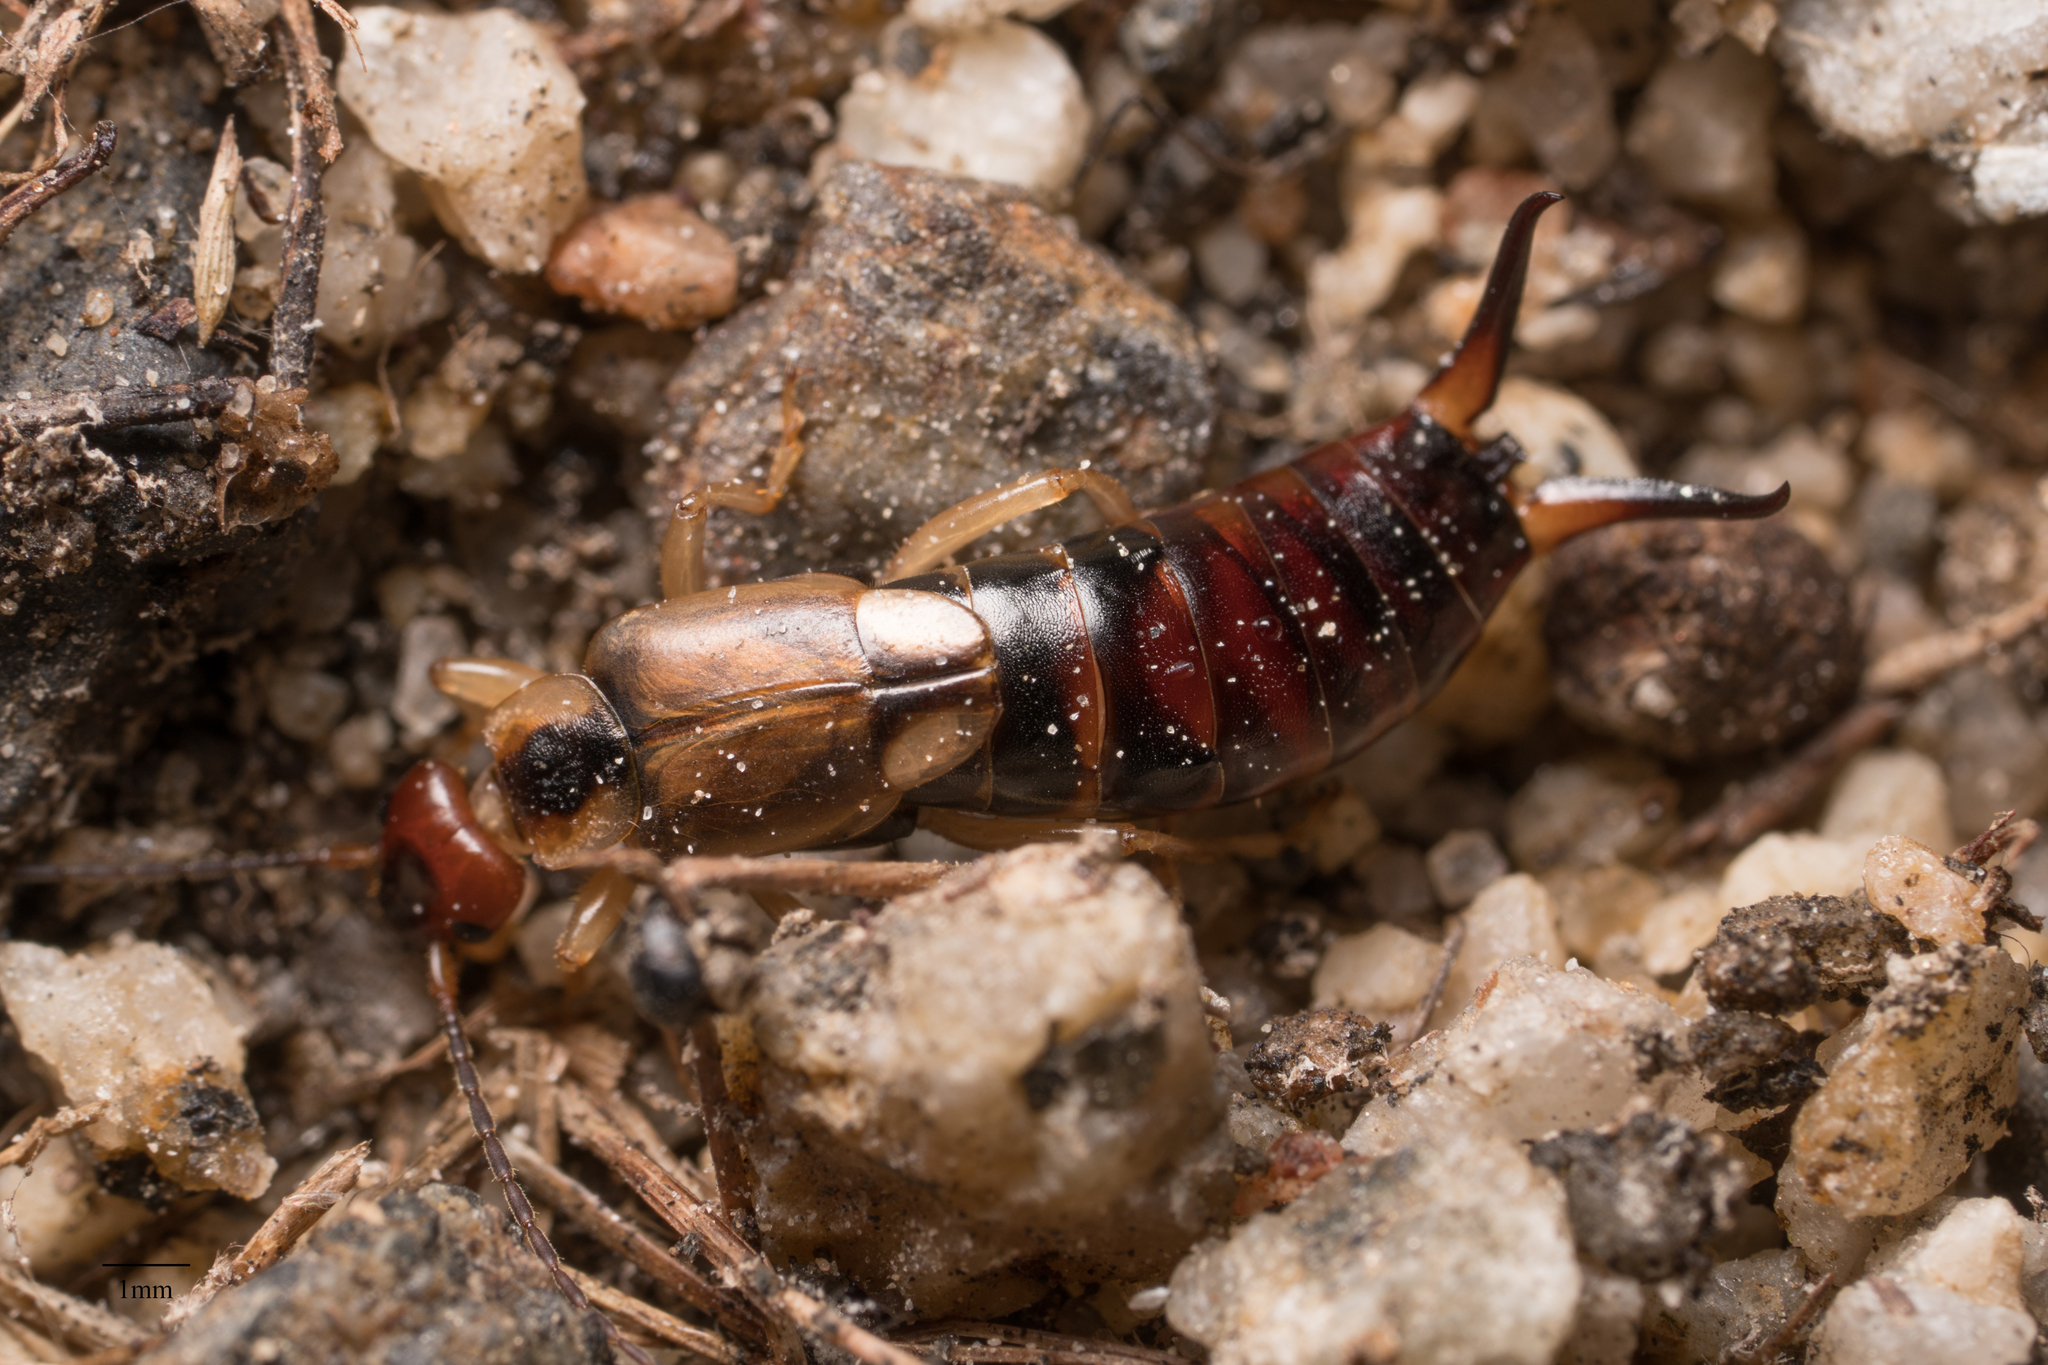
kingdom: Animalia
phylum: Arthropoda
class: Insecta
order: Dermaptera
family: Forficulidae
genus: Forficula
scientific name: Forficula
